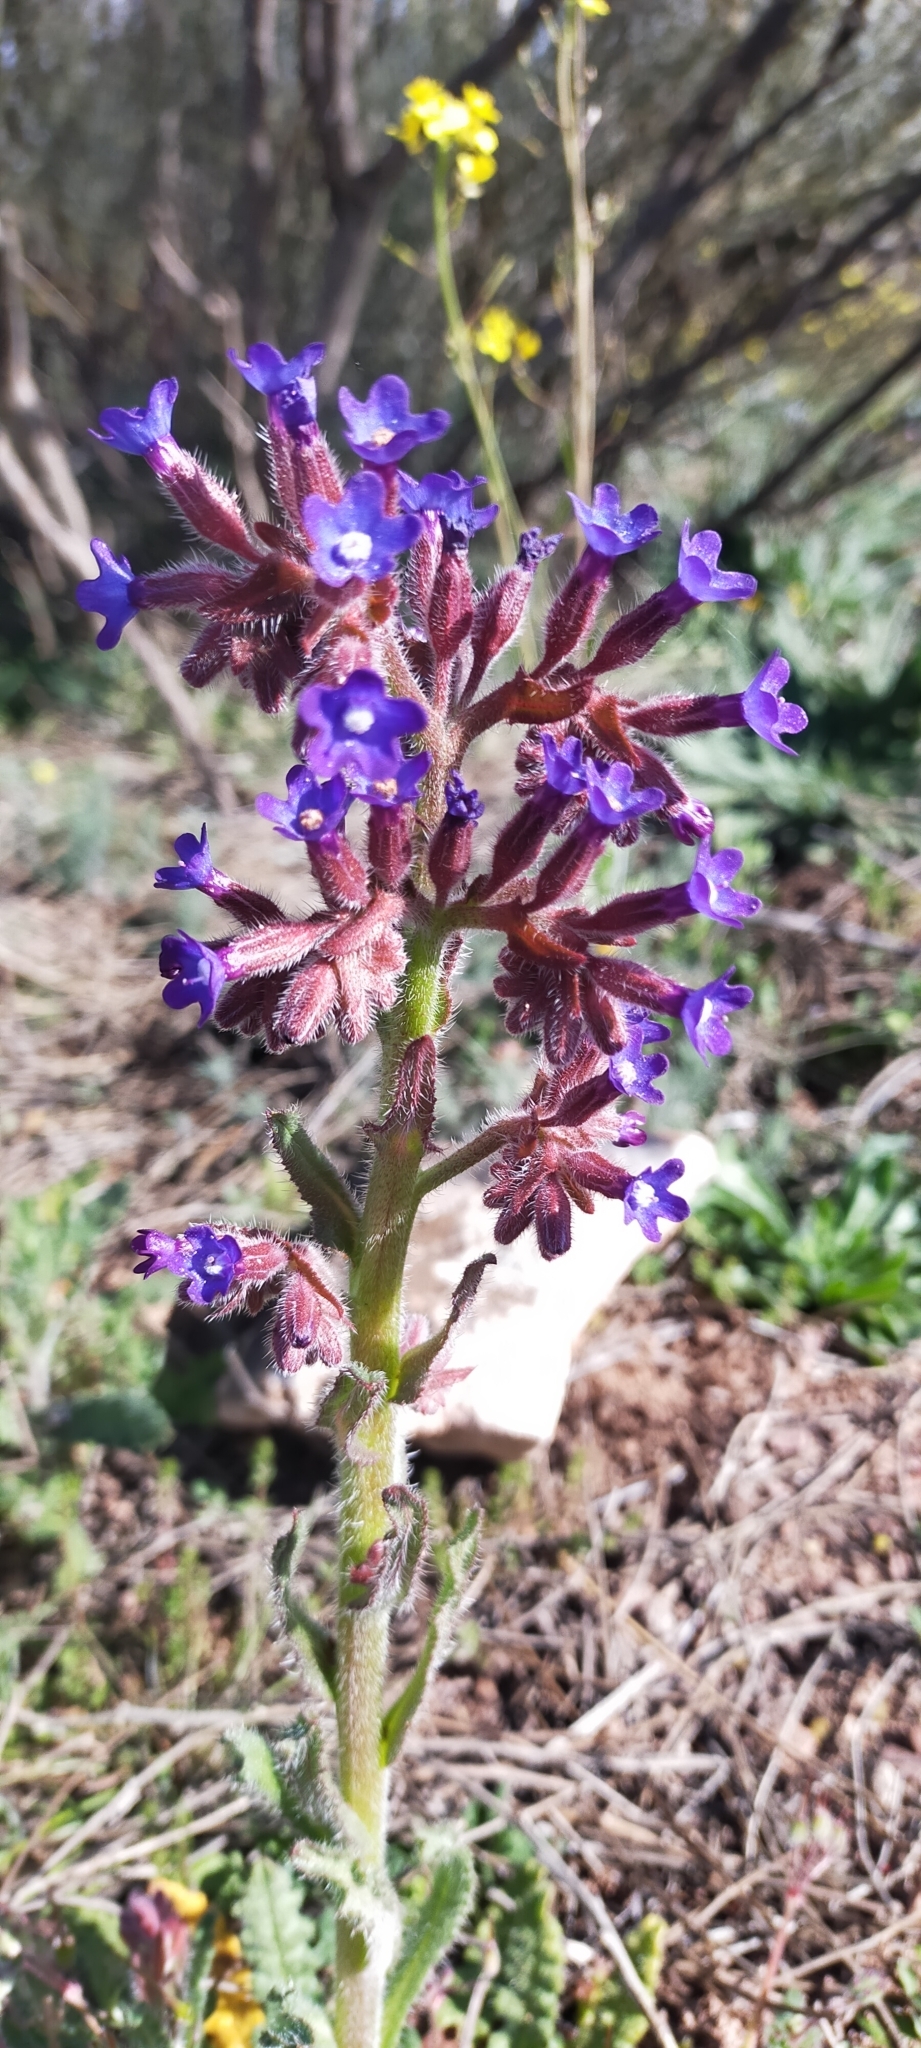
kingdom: Plantae
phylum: Tracheophyta
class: Magnoliopsida
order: Boraginales
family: Boraginaceae
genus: Anchusa
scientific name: Anchusa undulata
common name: Undulate alkanet
